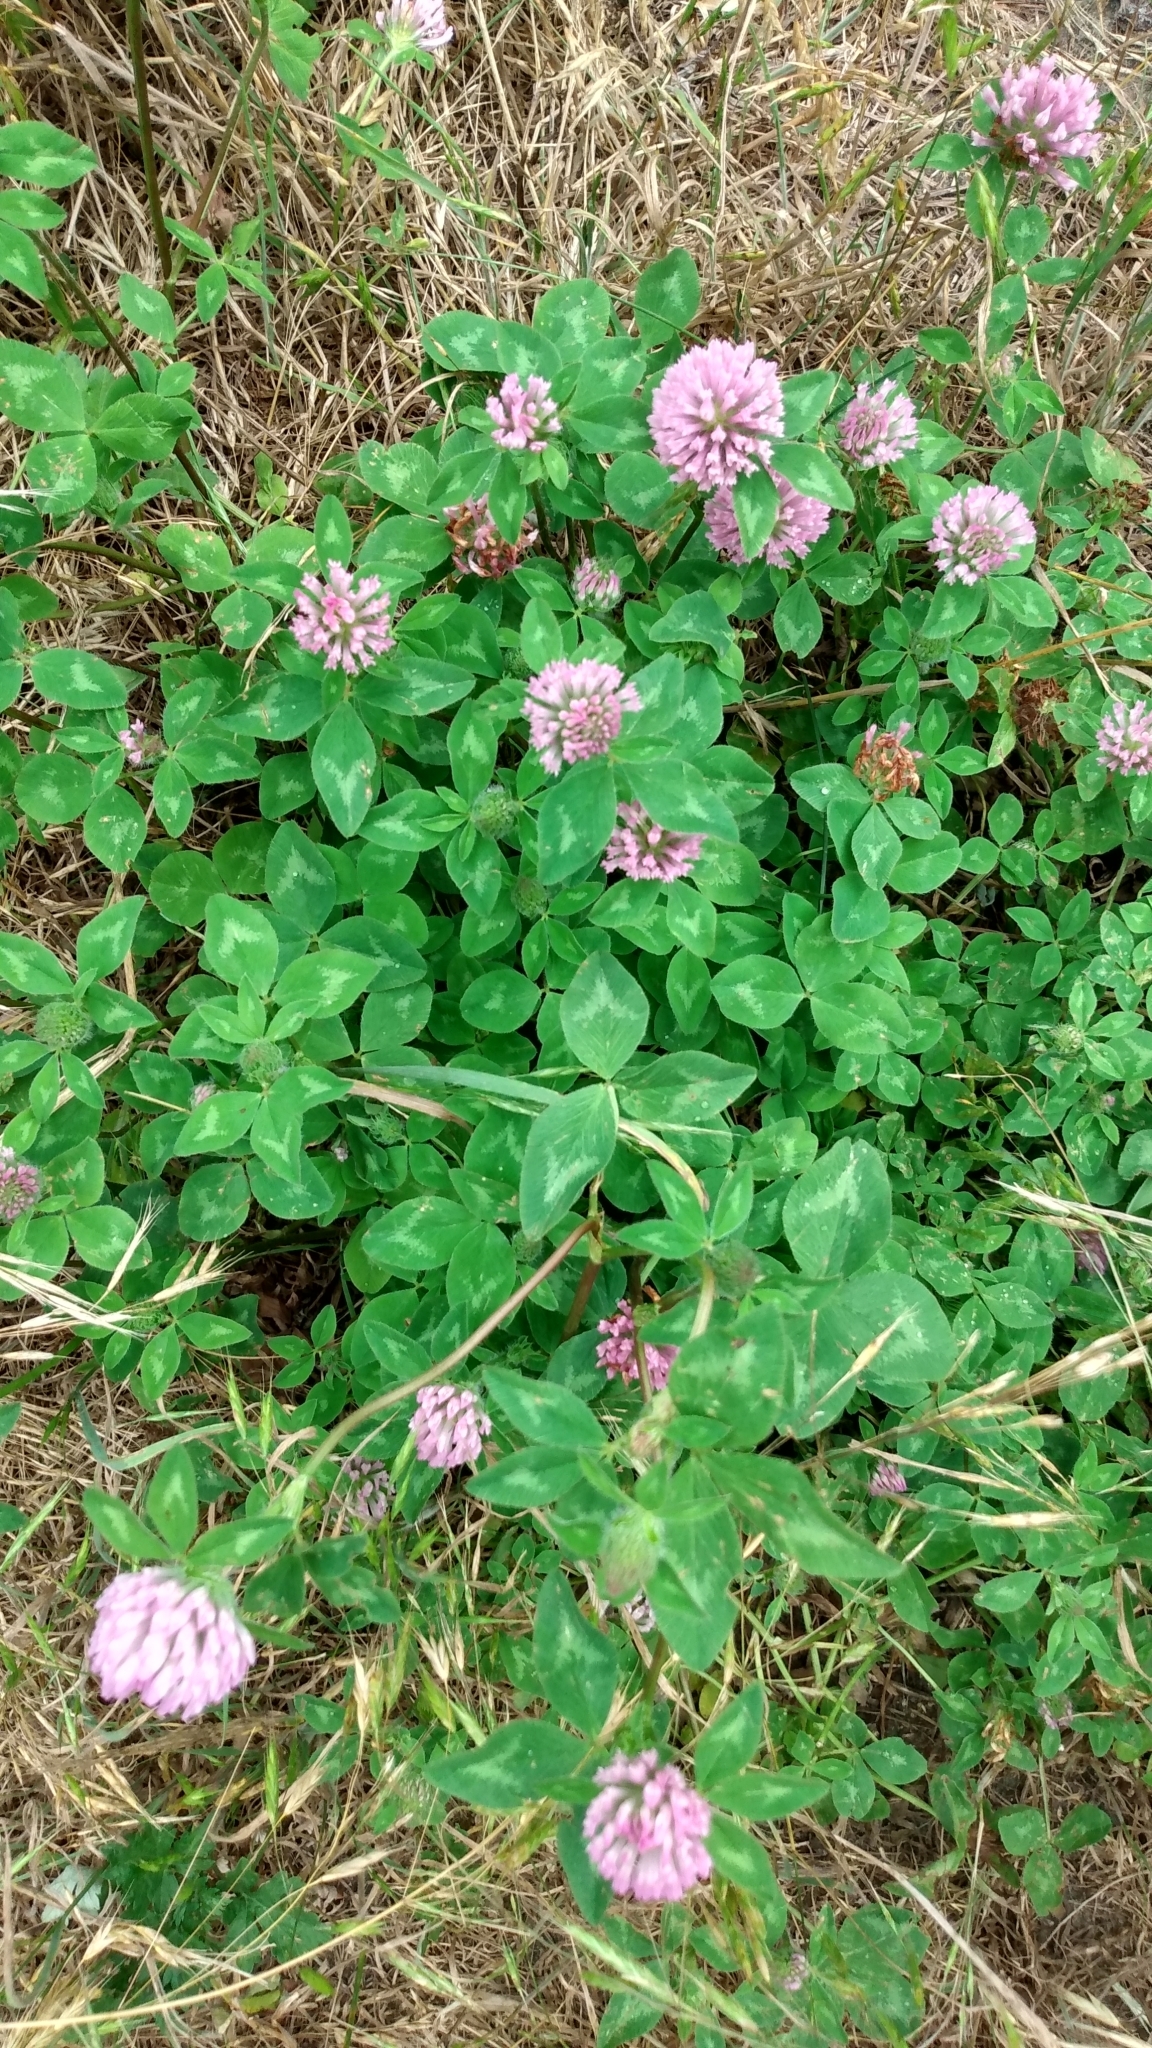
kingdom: Plantae
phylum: Tracheophyta
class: Magnoliopsida
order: Fabales
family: Fabaceae
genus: Trifolium
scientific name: Trifolium pratense
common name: Red clover
